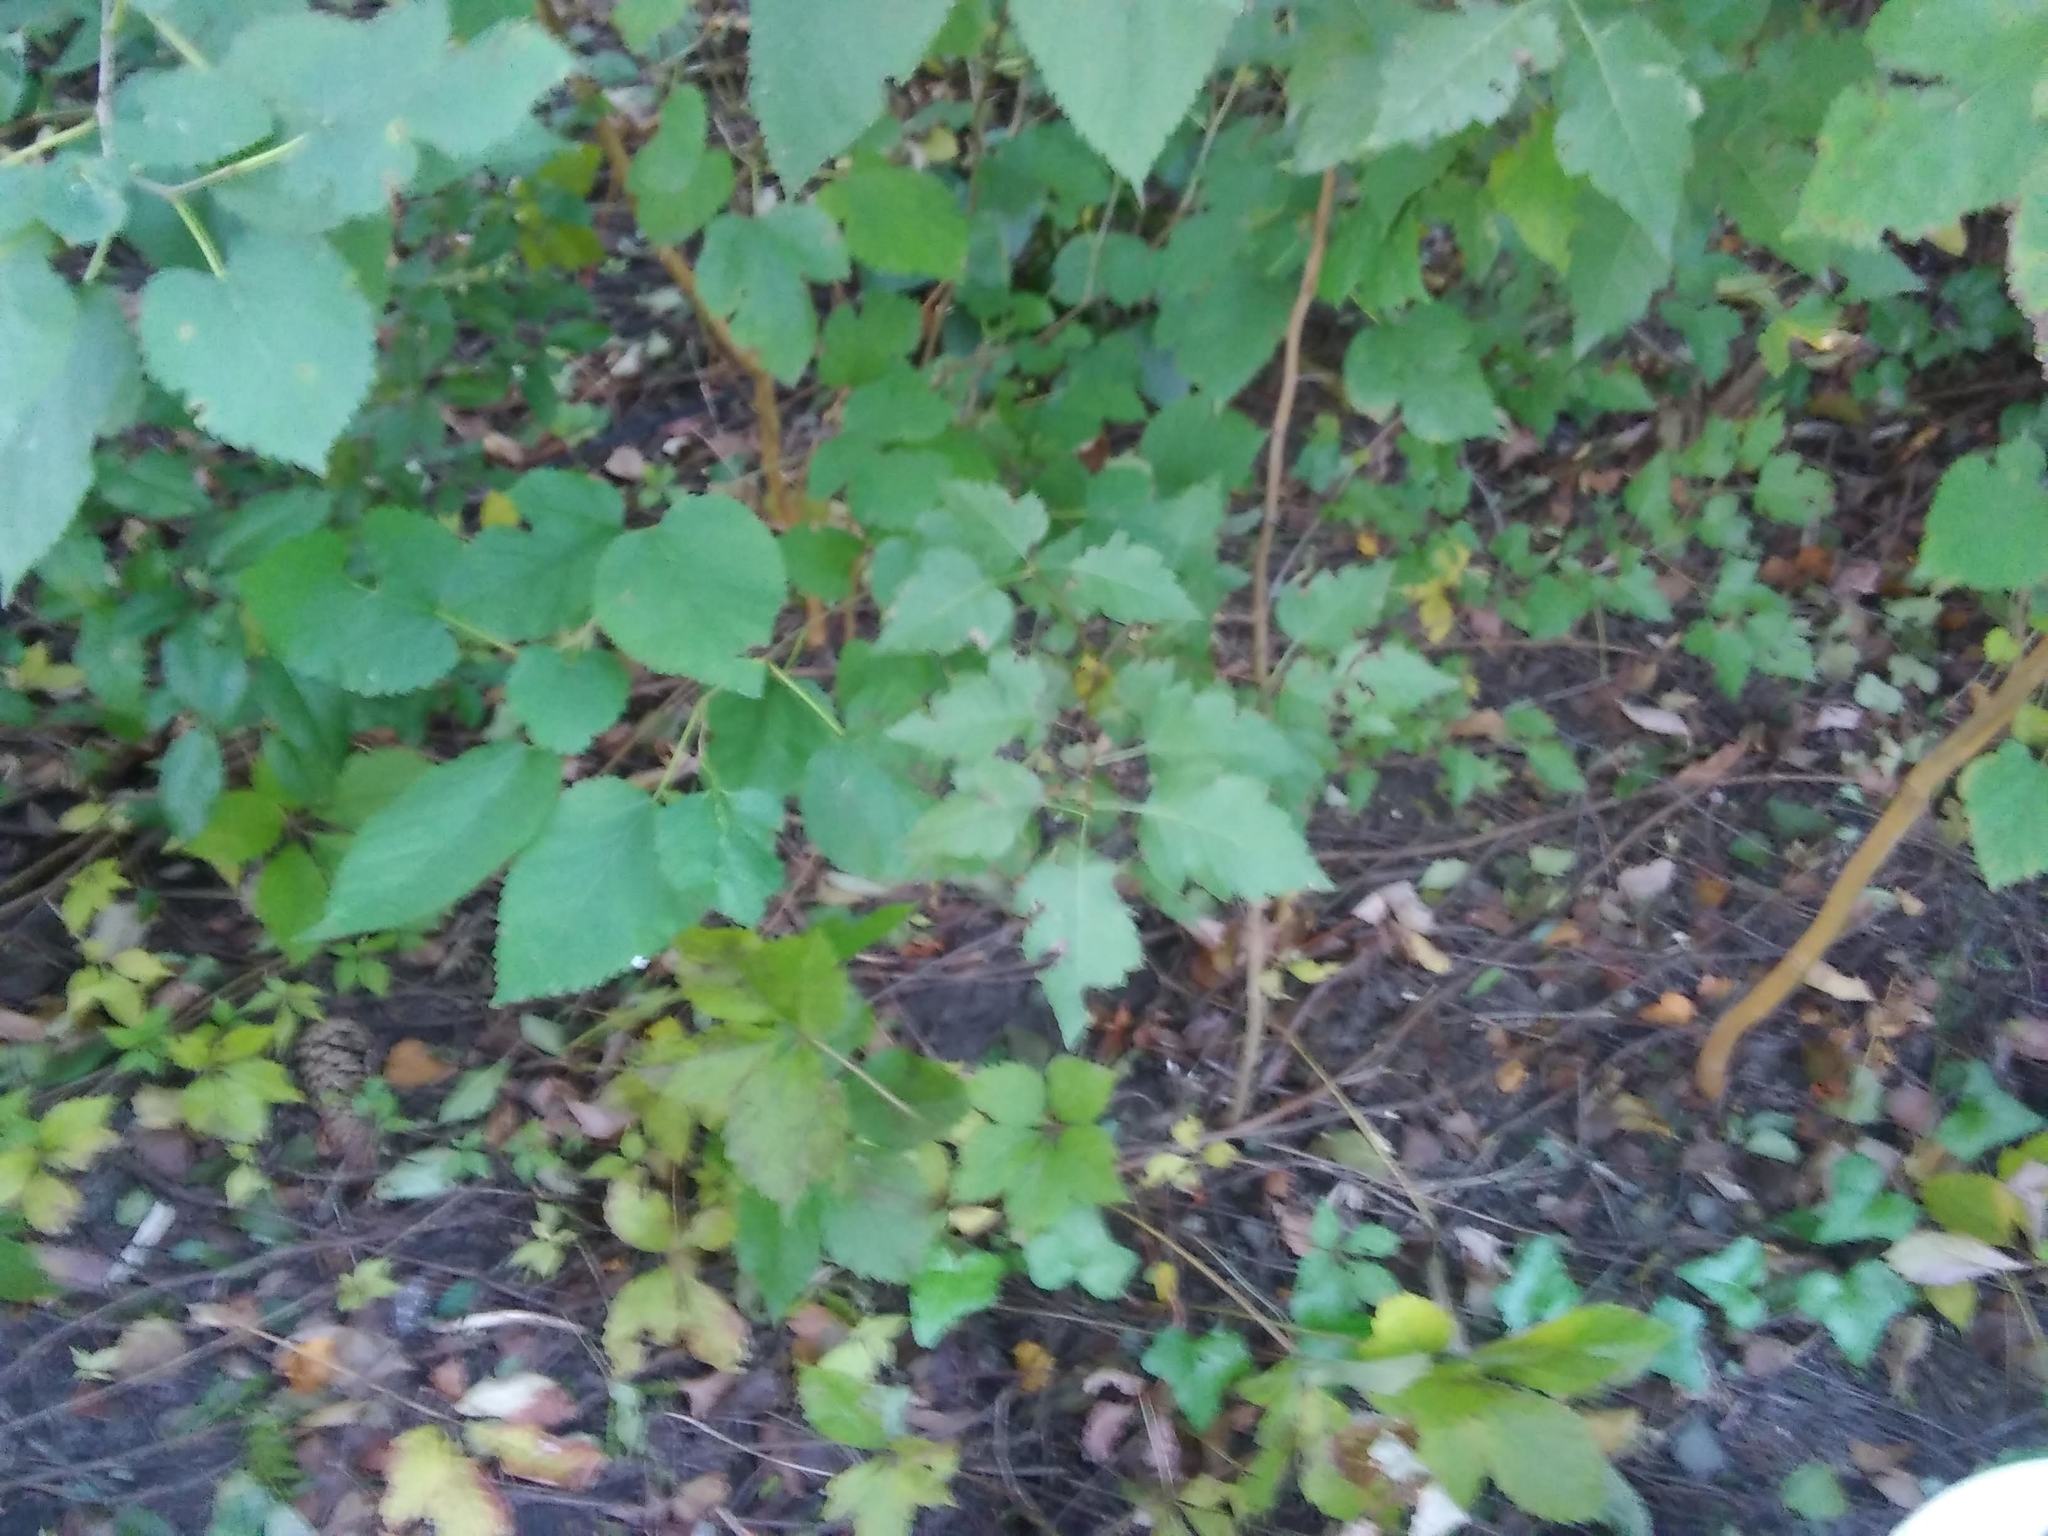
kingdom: Plantae
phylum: Tracheophyta
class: Magnoliopsida
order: Rosales
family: Moraceae
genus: Morus
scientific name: Morus alba
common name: White mulberry
